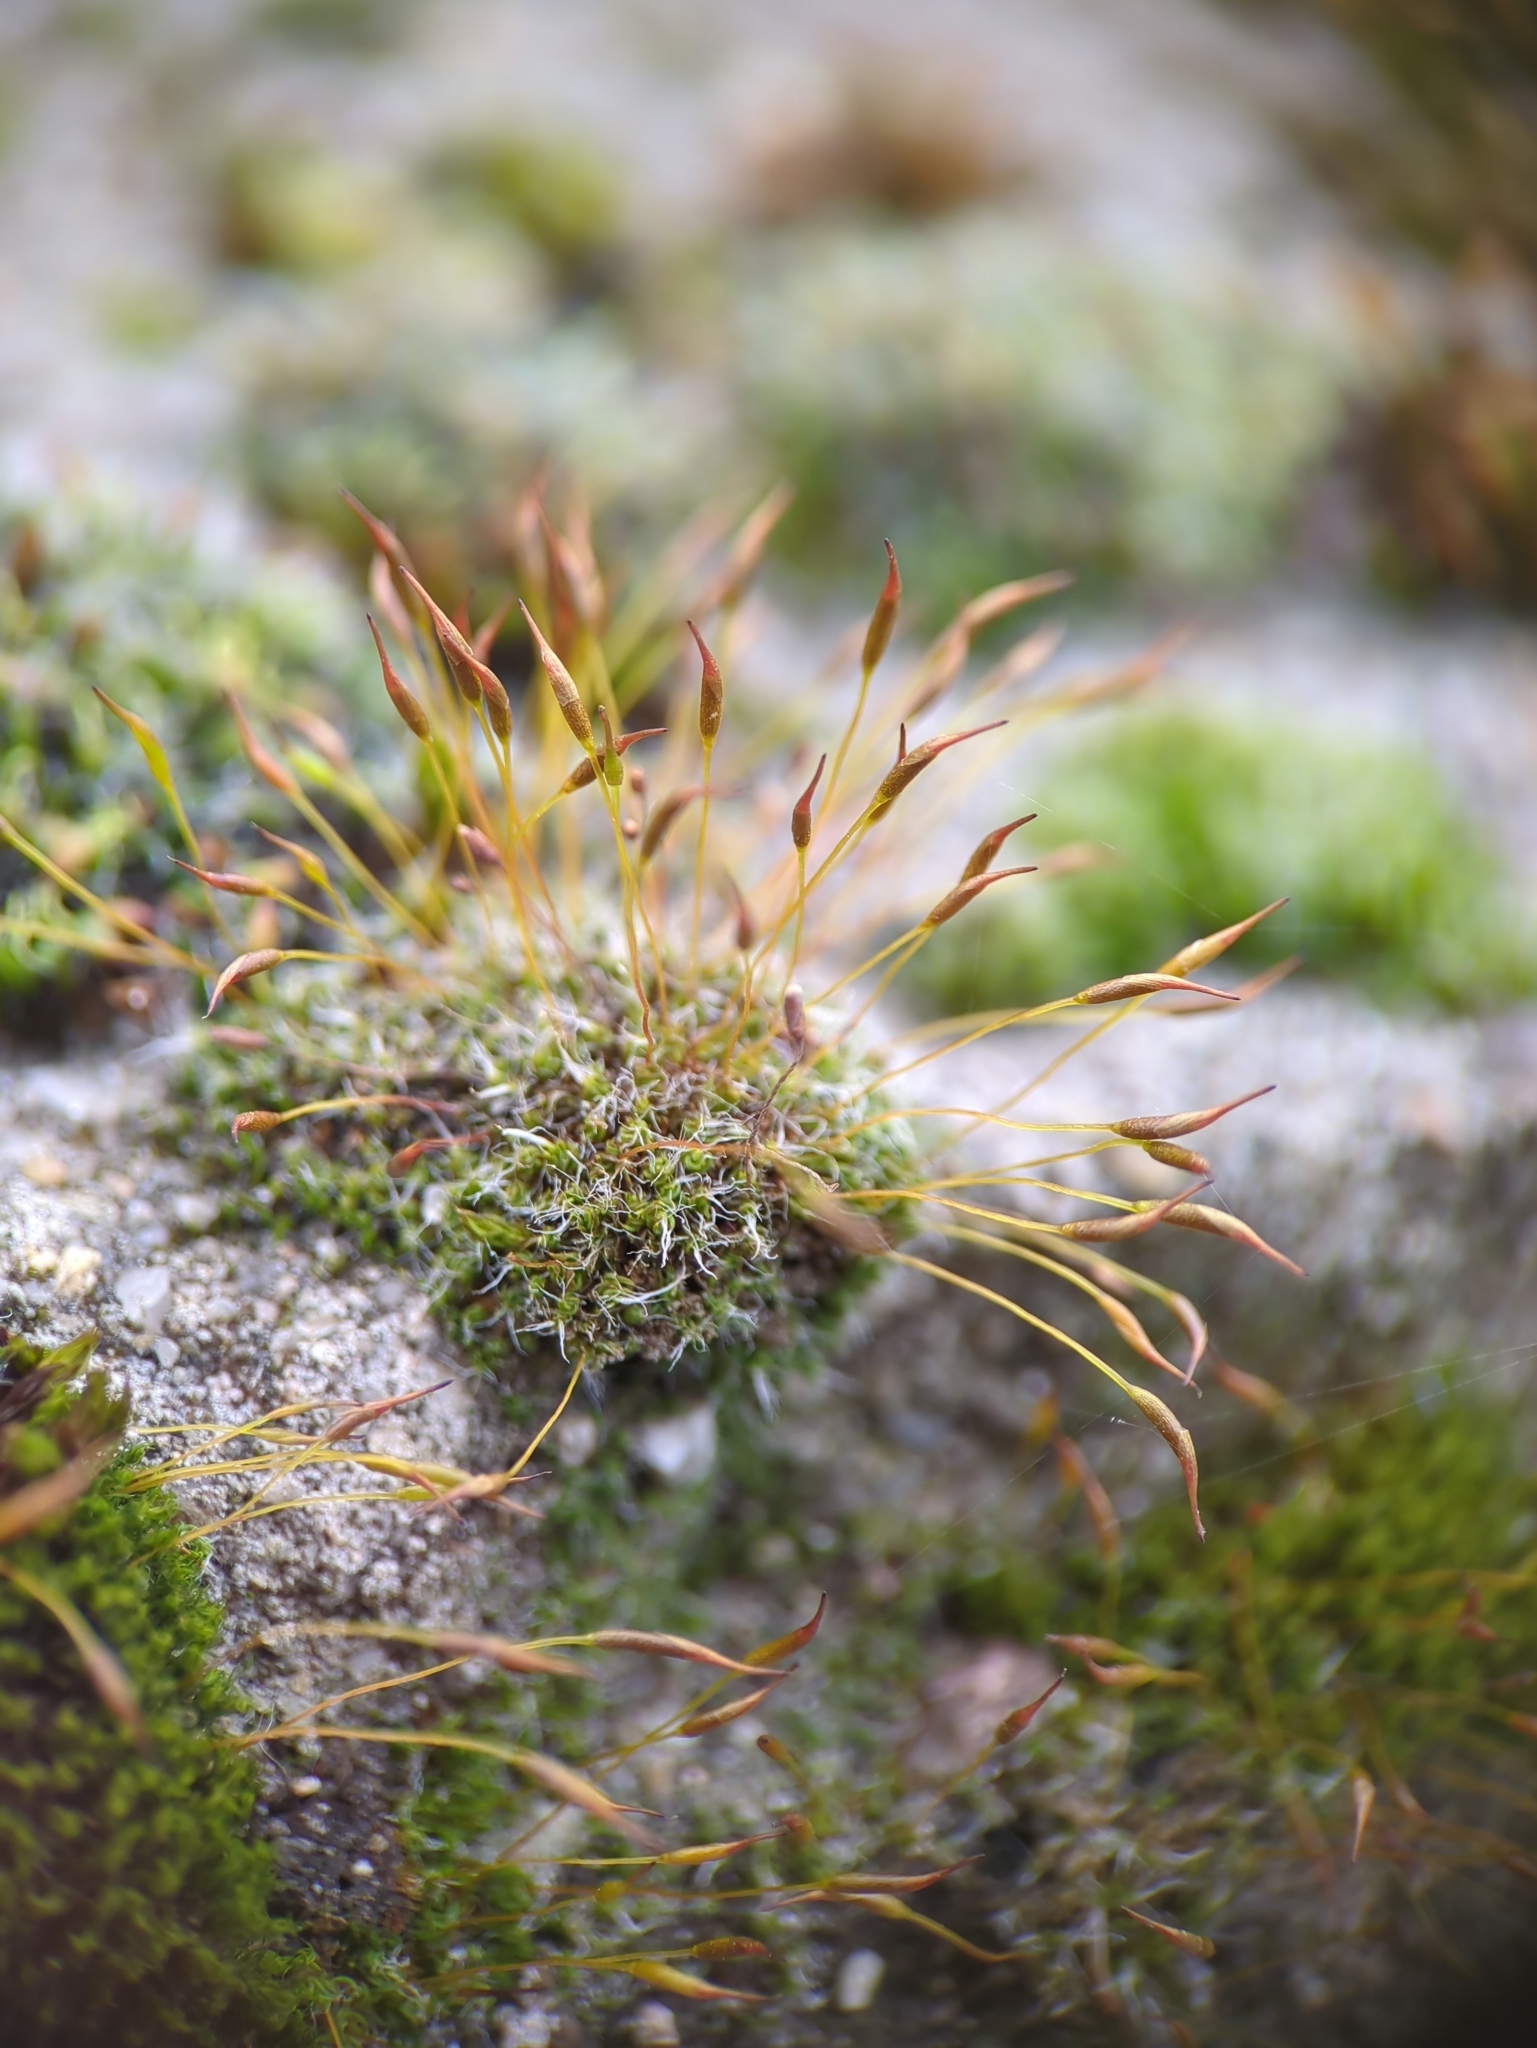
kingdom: Plantae
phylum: Bryophyta
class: Bryopsida
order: Pottiales
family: Pottiaceae
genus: Tortula
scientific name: Tortula muralis
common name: Wall screw-moss
